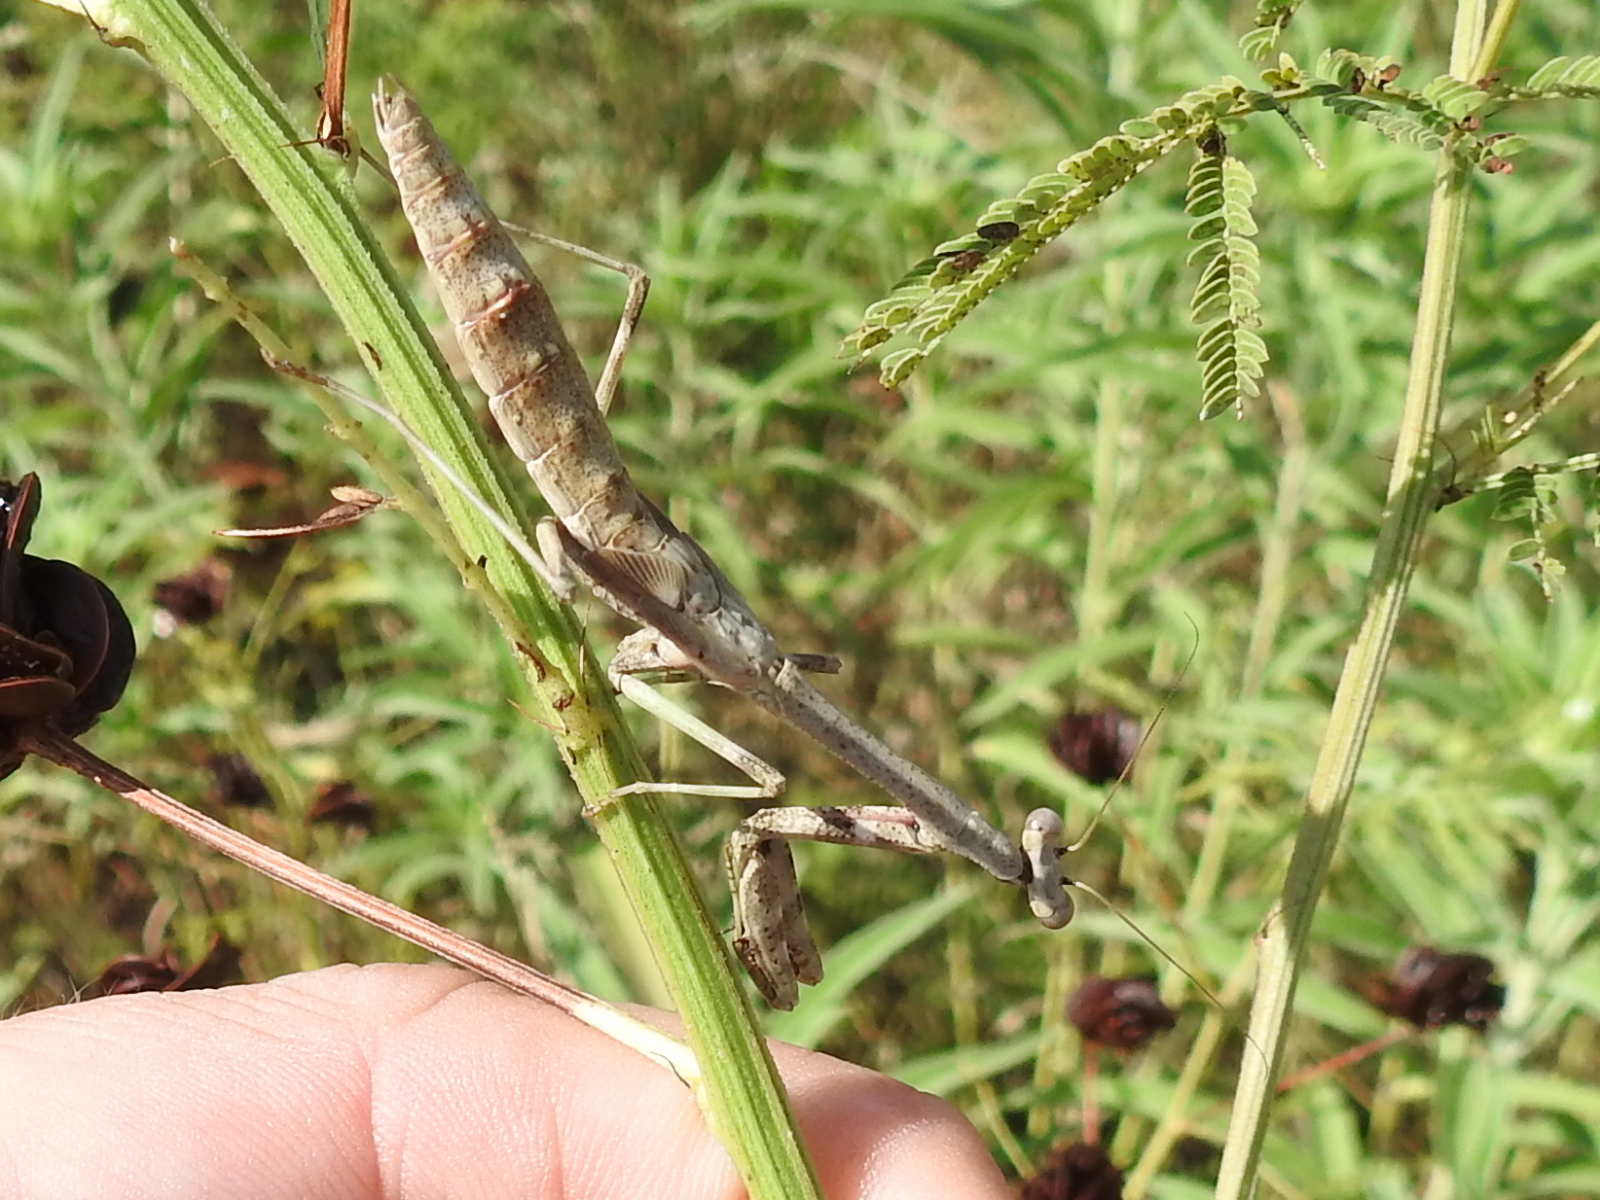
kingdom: Animalia
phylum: Arthropoda
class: Insecta
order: Mantodea
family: Mantidae
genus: Stagmomantis
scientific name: Stagmomantis carolina
